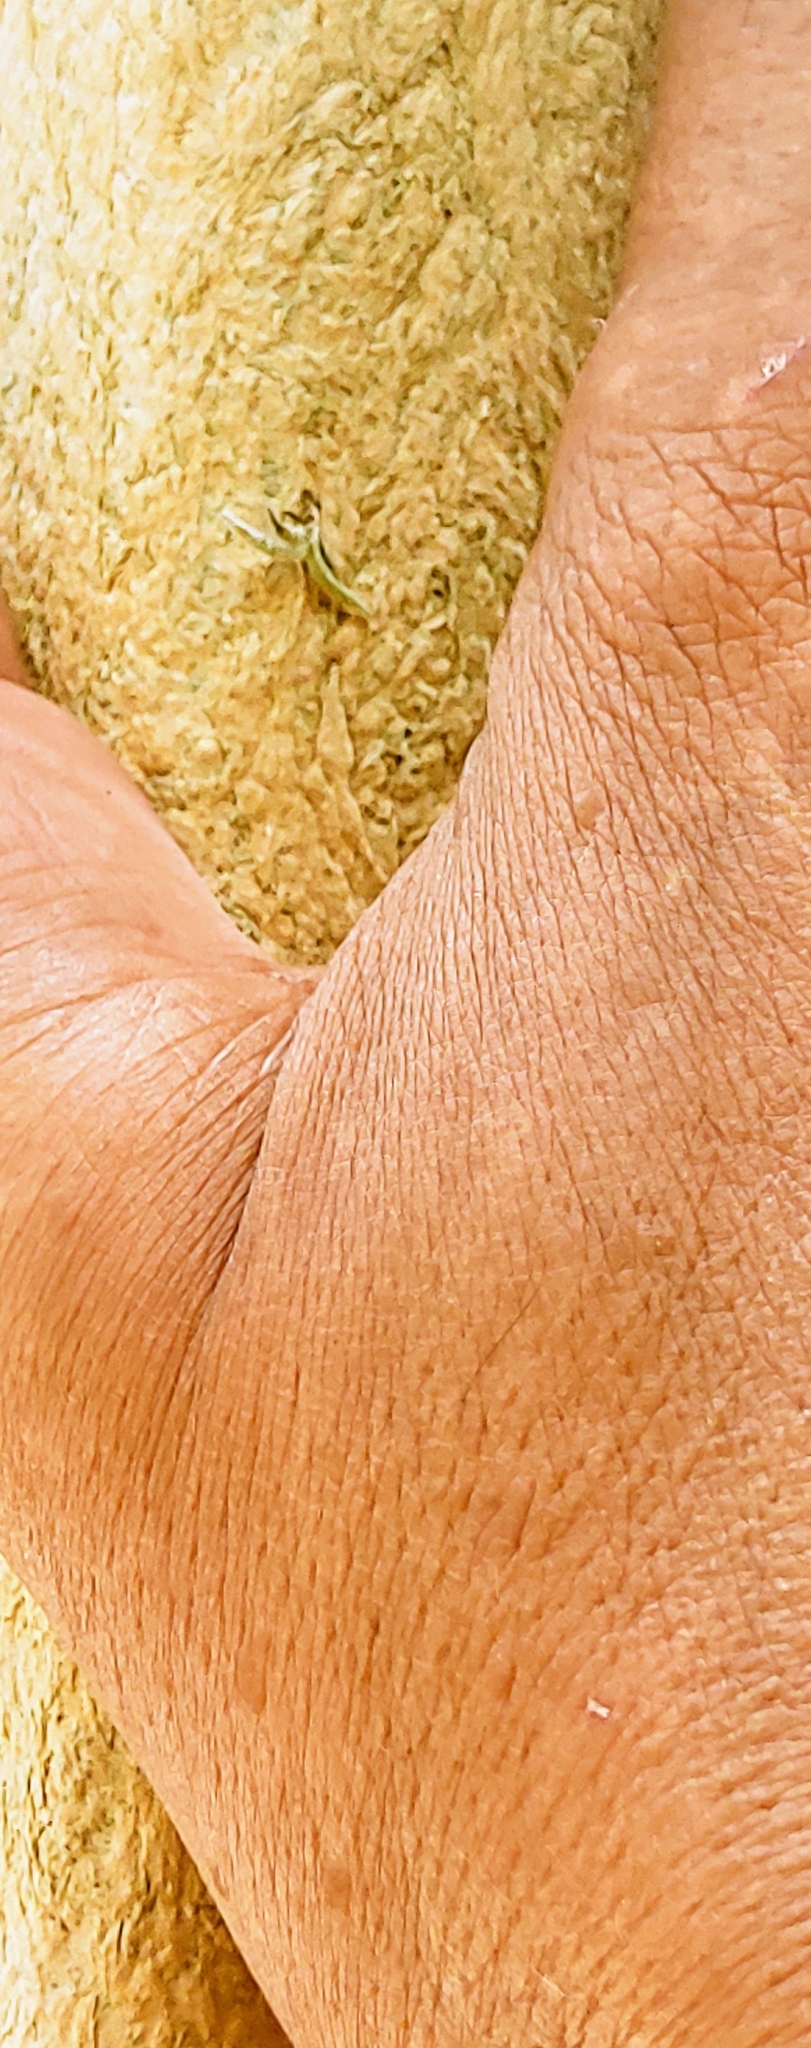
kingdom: Plantae
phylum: Tracheophyta
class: Liliopsida
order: Poales
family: Bromeliaceae
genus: Tillandsia
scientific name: Tillandsia recurvata
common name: Small ballmoss
